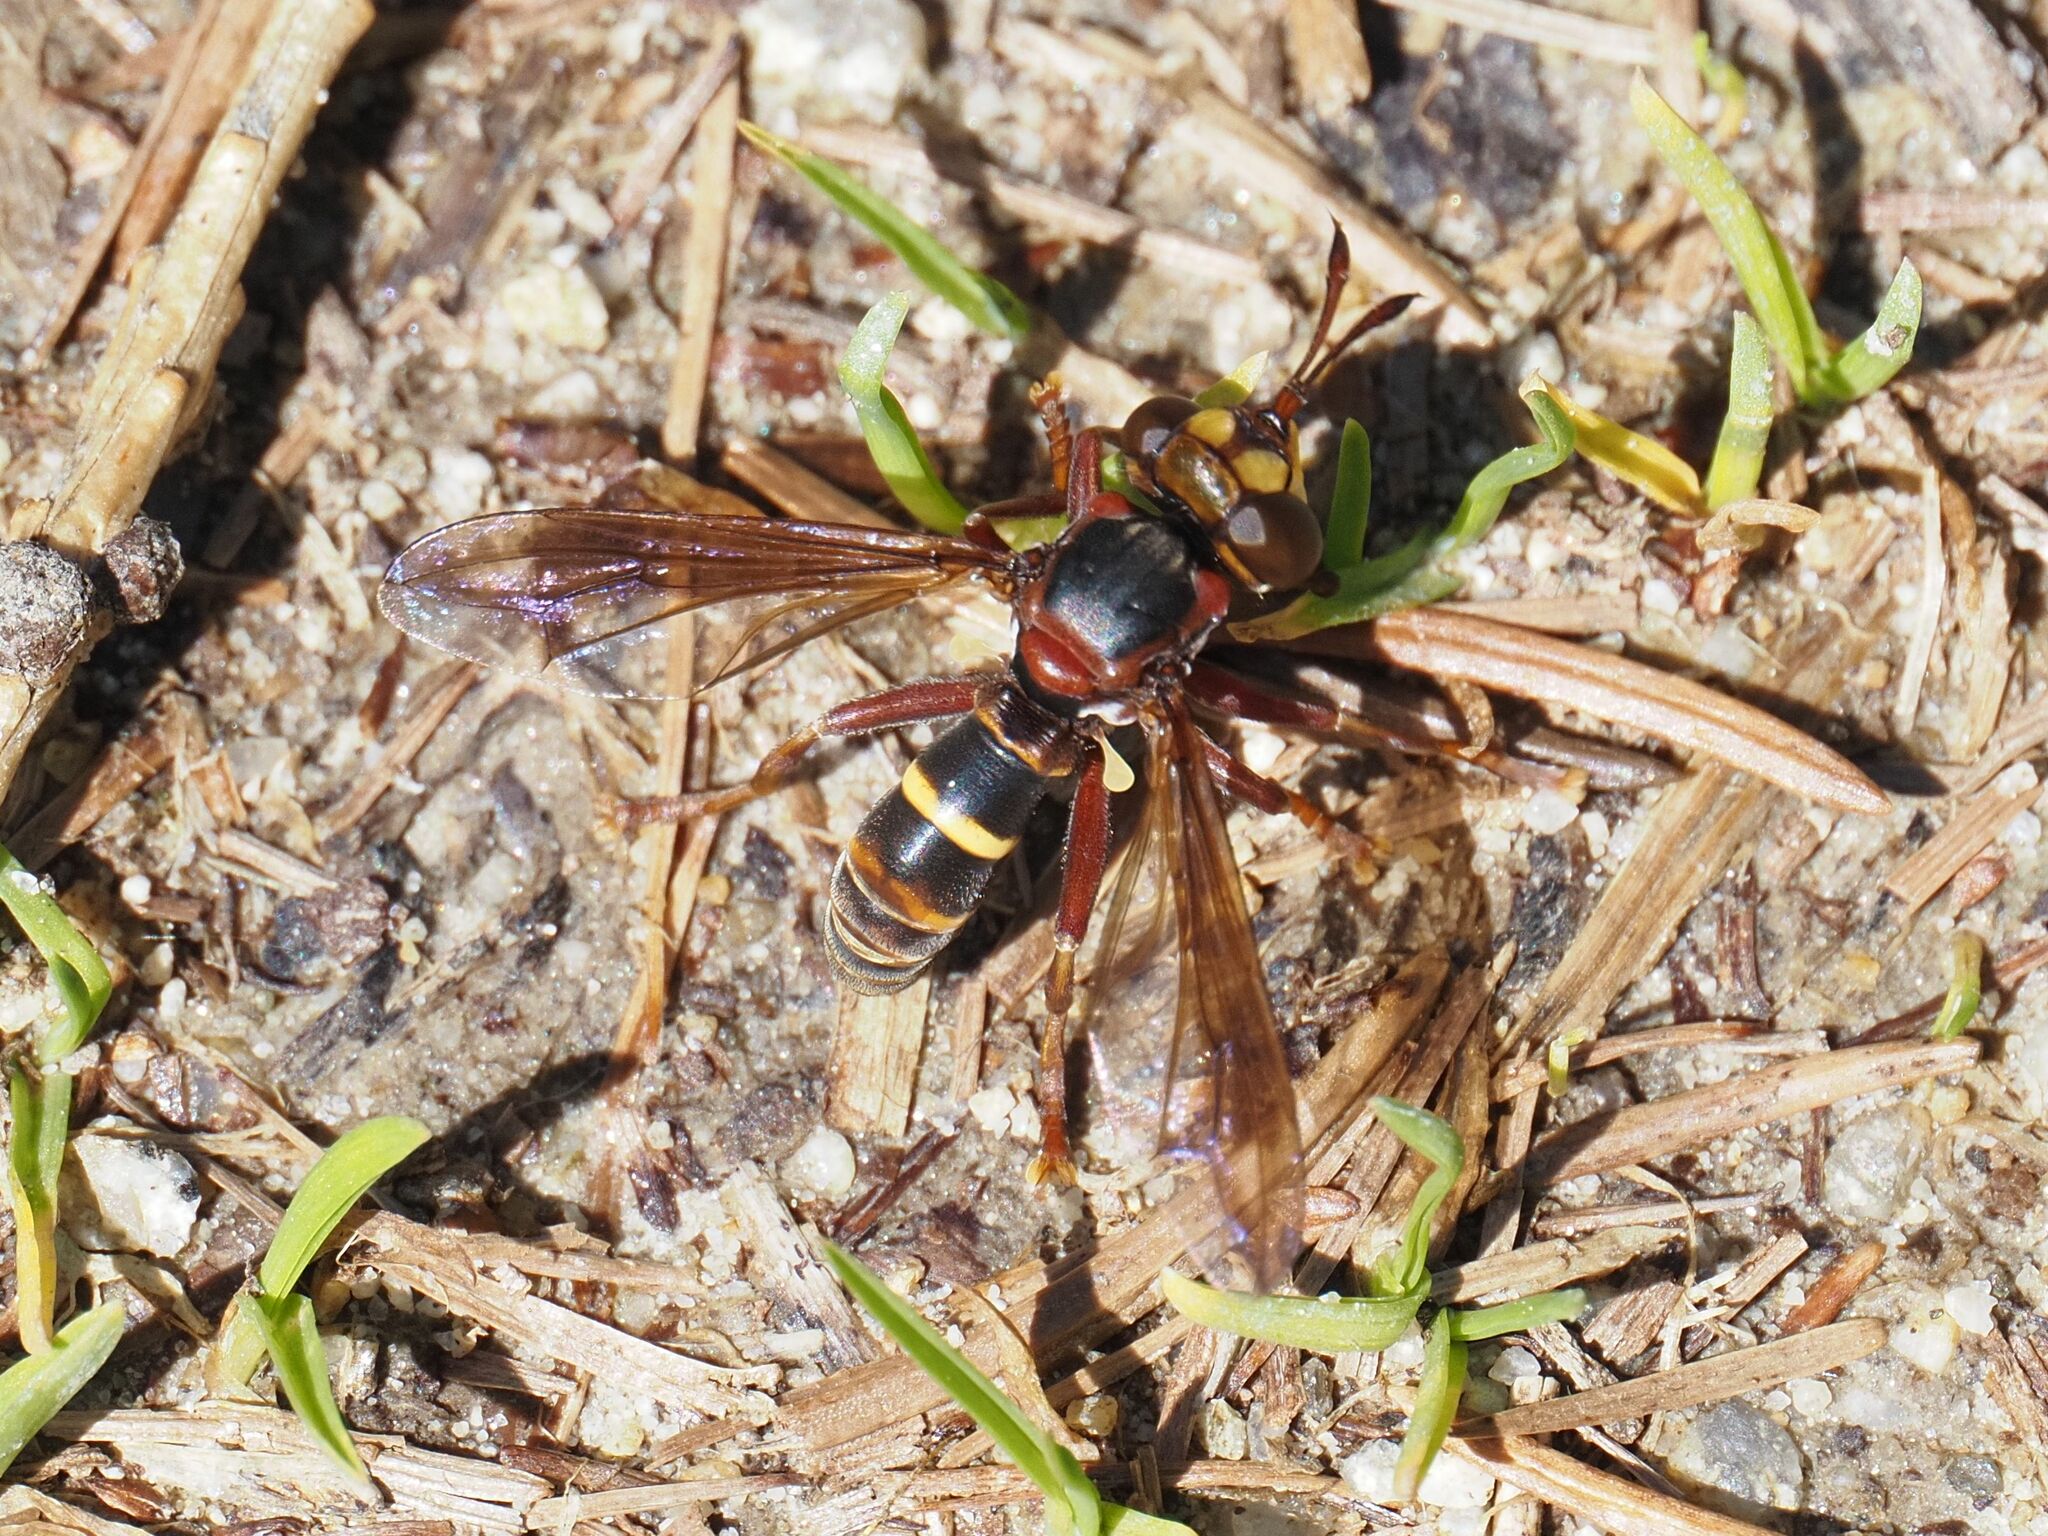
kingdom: Animalia
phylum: Arthropoda
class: Insecta
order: Diptera
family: Conopidae
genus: Conops
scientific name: Conops vesicularis
